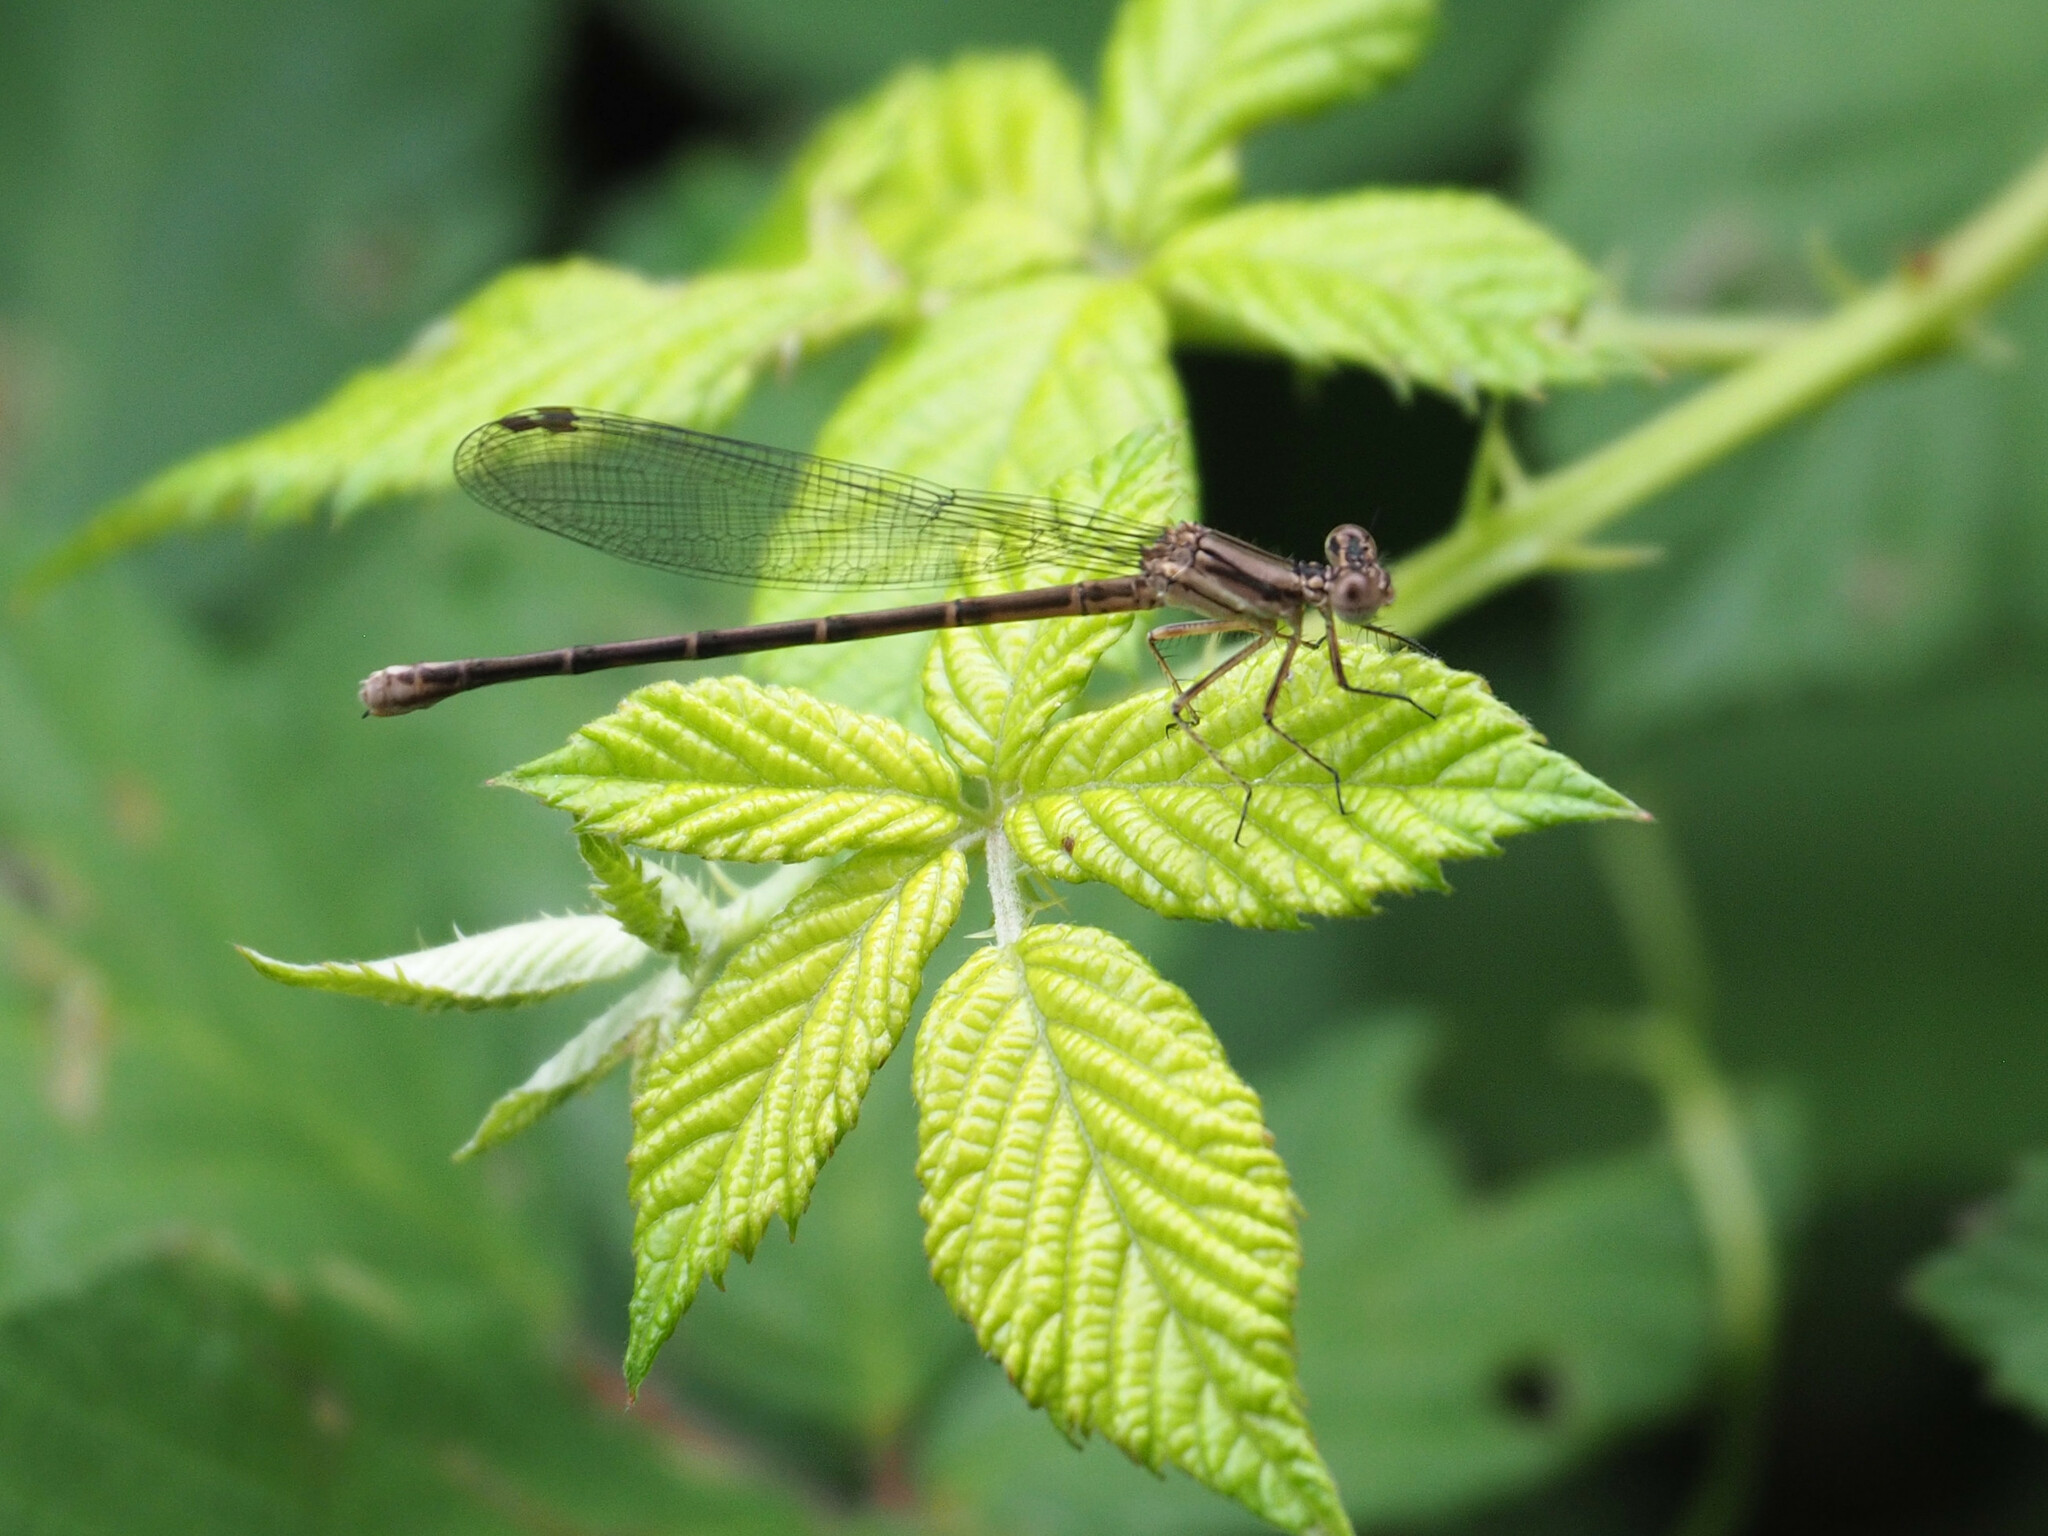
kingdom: Animalia
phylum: Arthropoda
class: Insecta
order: Odonata
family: Coenagrionidae
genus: Argia
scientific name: Argia fumipennis
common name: Variable dancer
